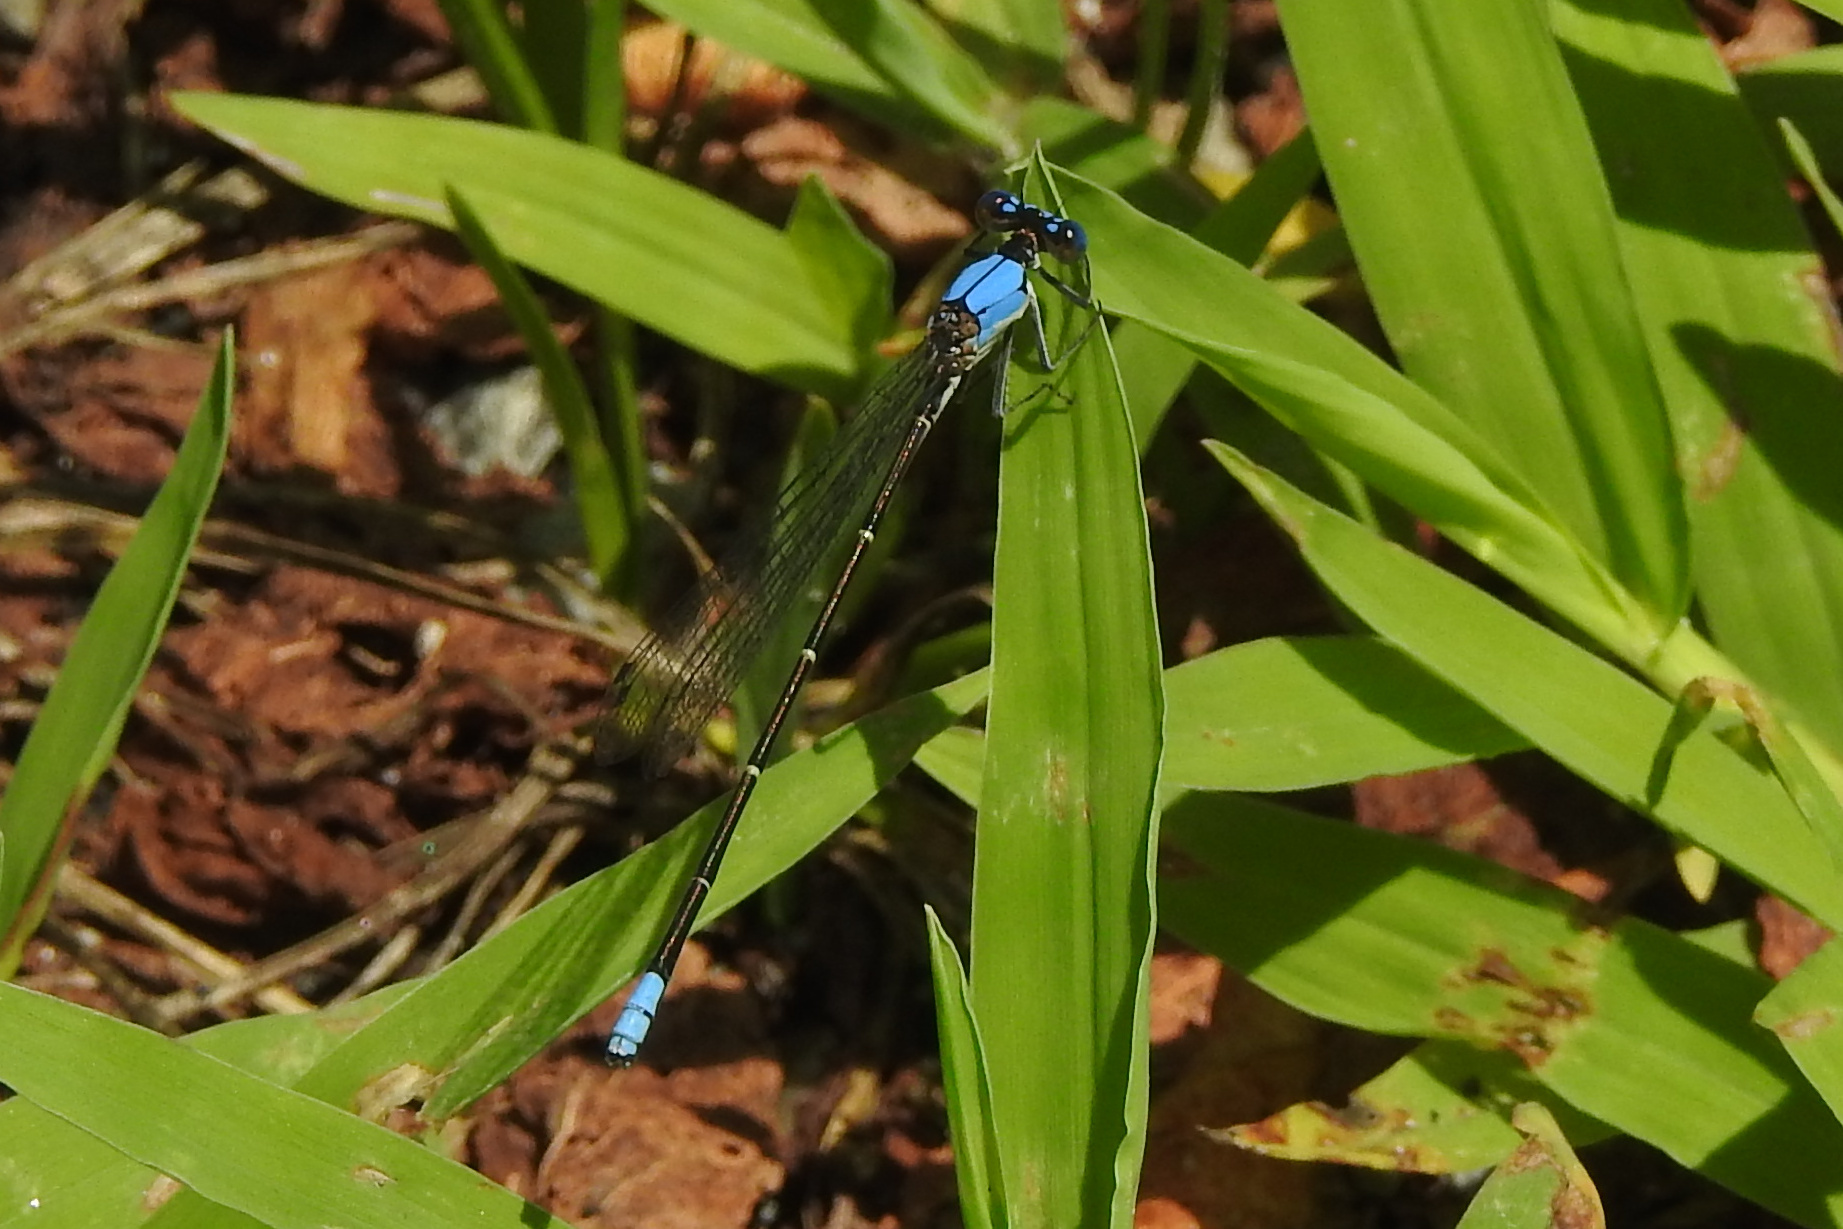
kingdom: Animalia
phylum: Arthropoda
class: Insecta
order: Odonata
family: Coenagrionidae
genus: Argia
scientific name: Argia apicalis
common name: Blue-fronted dancer
